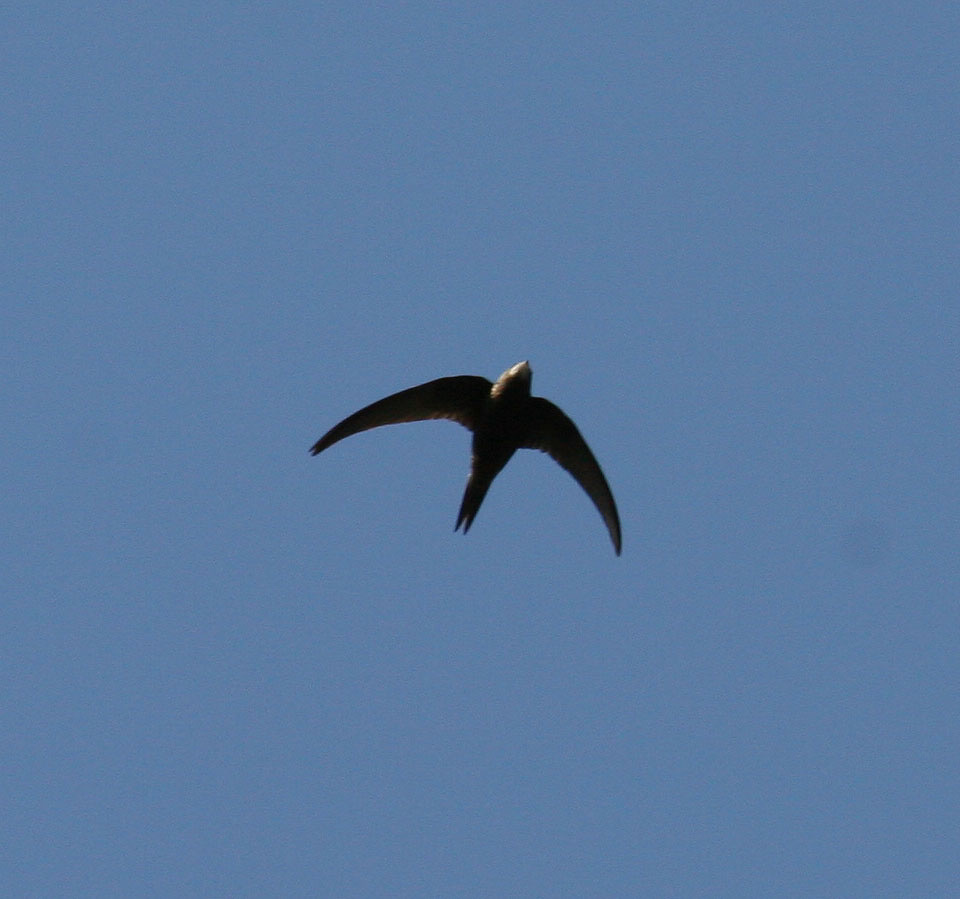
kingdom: Animalia
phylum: Chordata
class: Aves
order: Apodiformes
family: Apodidae
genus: Apus
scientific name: Apus apus
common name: Common swift
